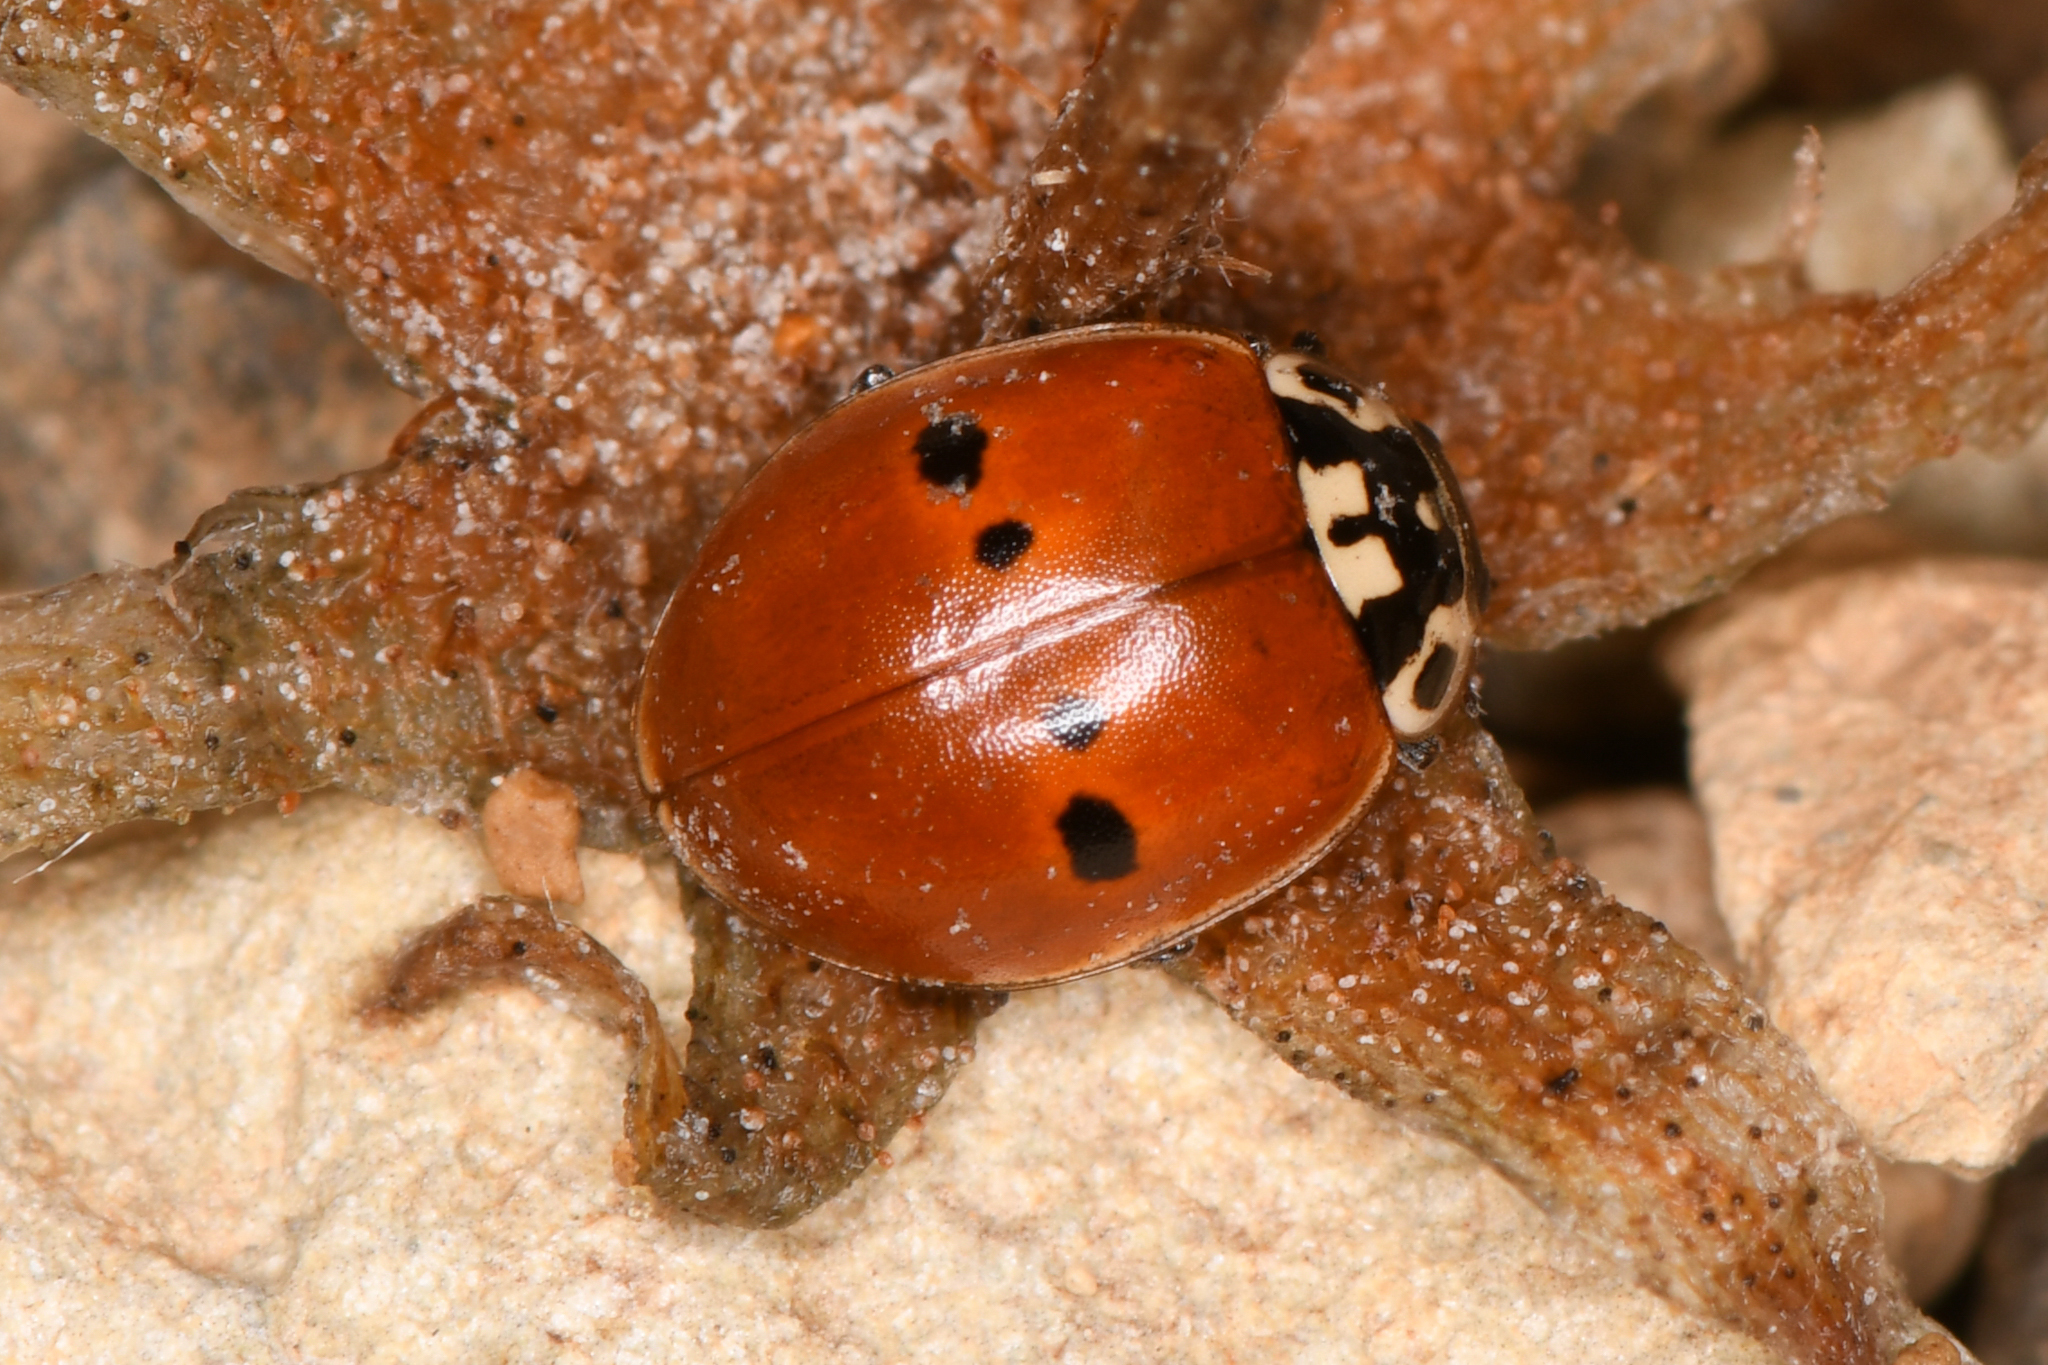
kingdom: Animalia
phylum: Arthropoda
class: Insecta
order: Coleoptera
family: Coccinellidae
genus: Adalia
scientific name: Adalia bipunctata
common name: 2-spot ladybird
